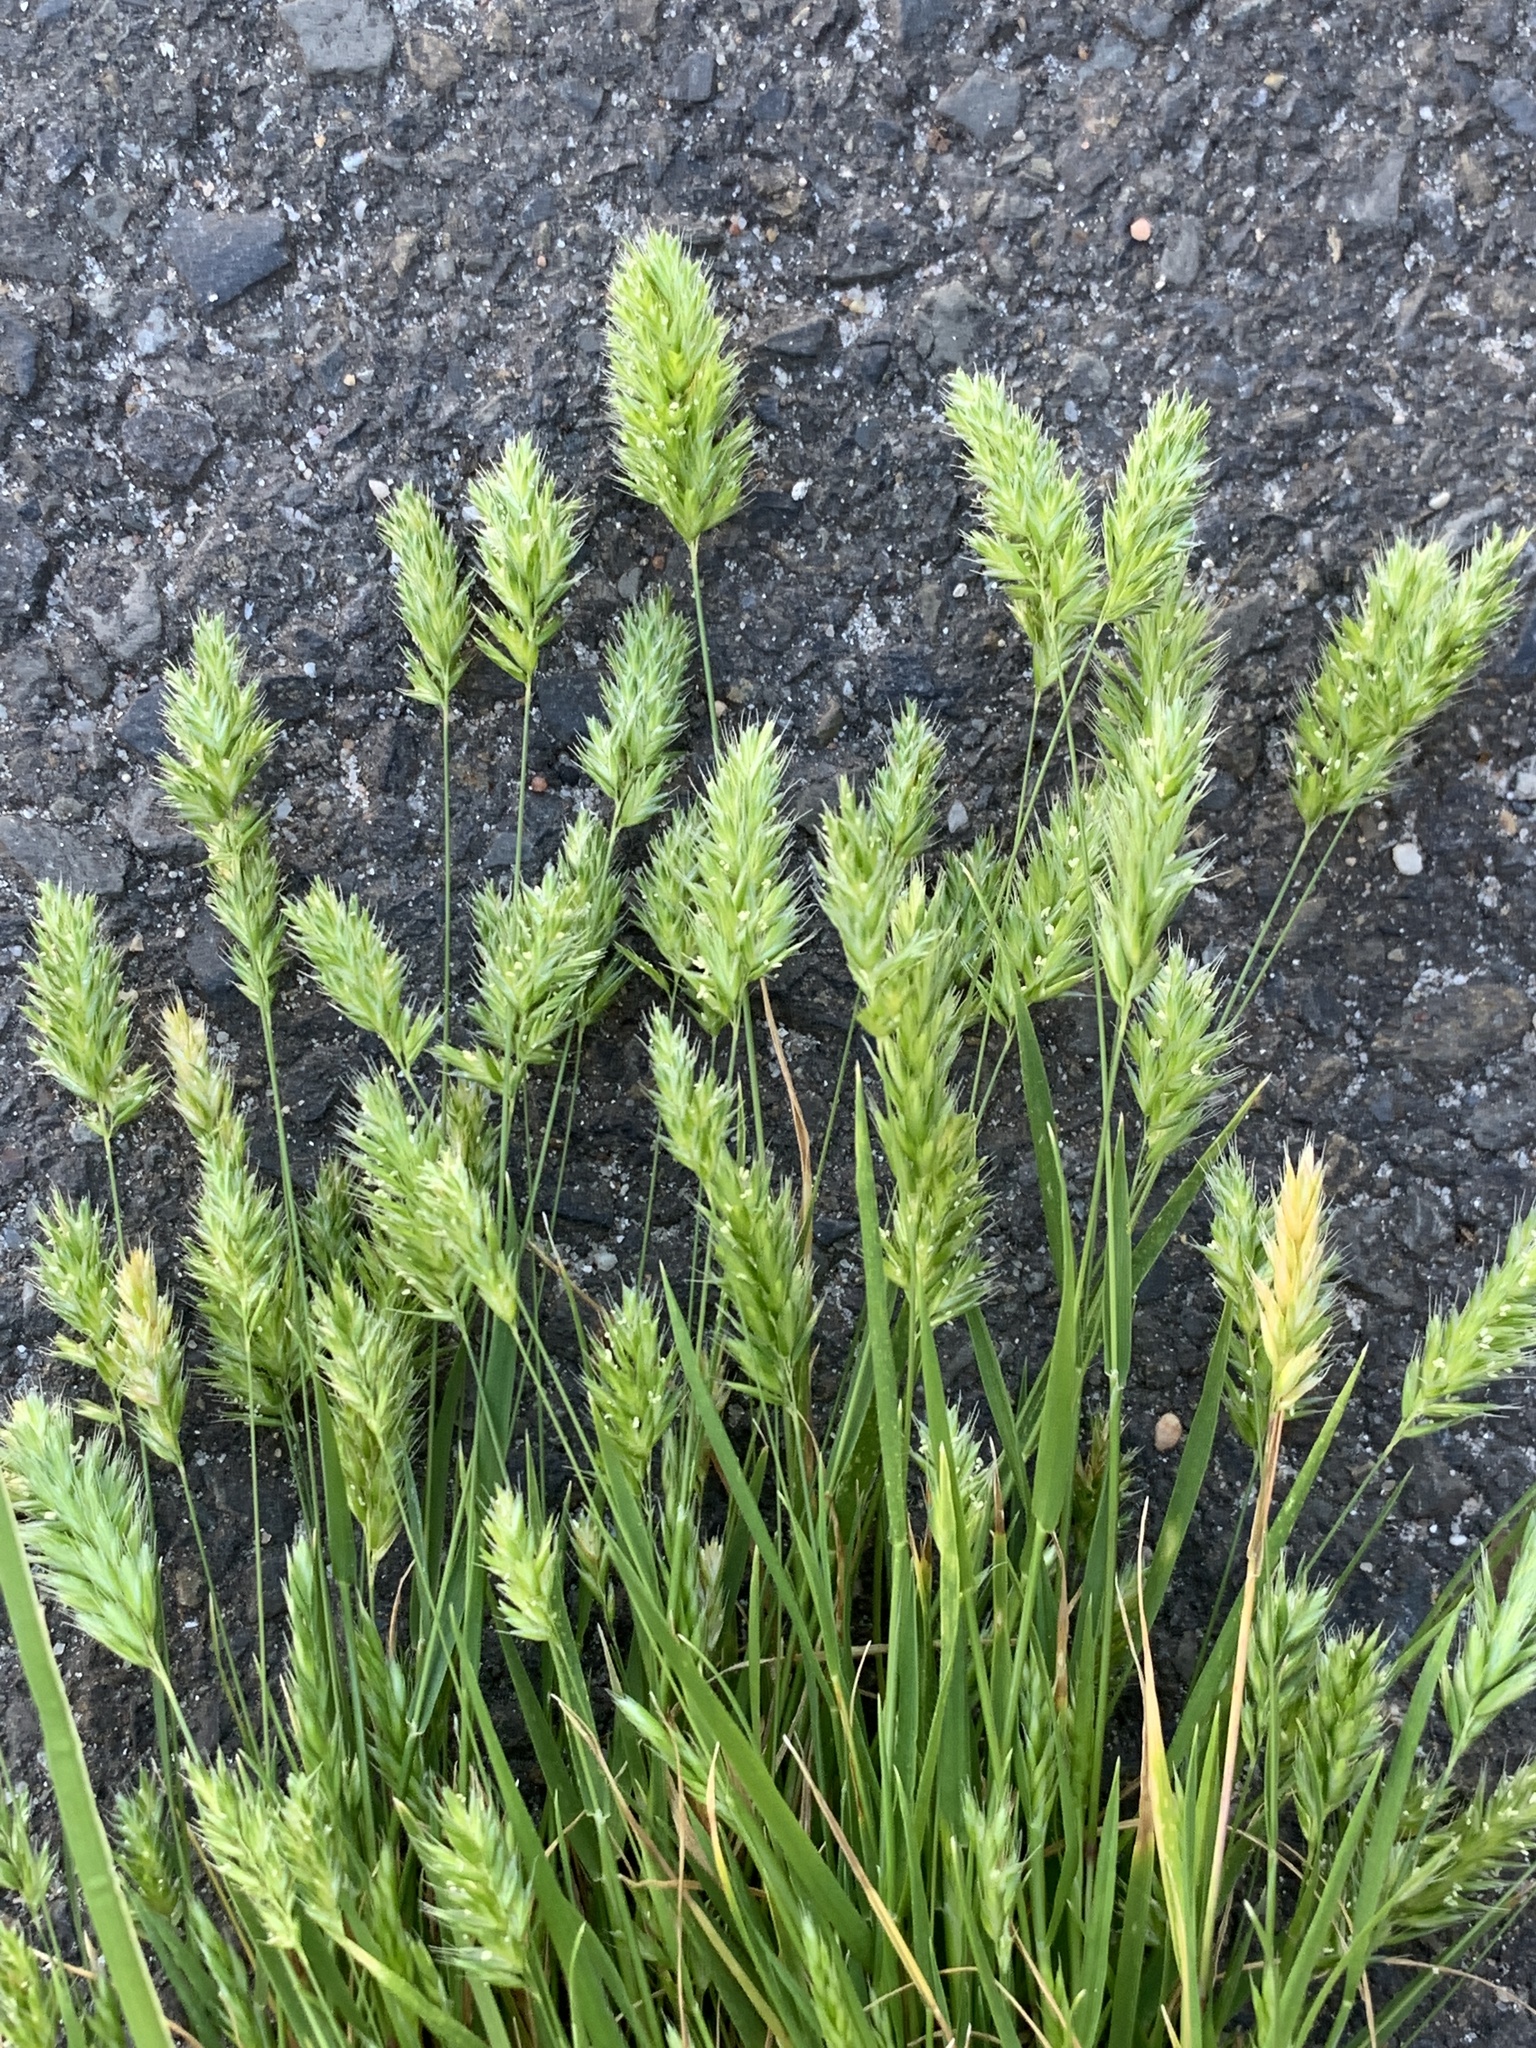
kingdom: Plantae
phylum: Tracheophyta
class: Liliopsida
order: Poales
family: Poaceae
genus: Rostraria
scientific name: Rostraria cristata
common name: Mediterranean hair-grass
